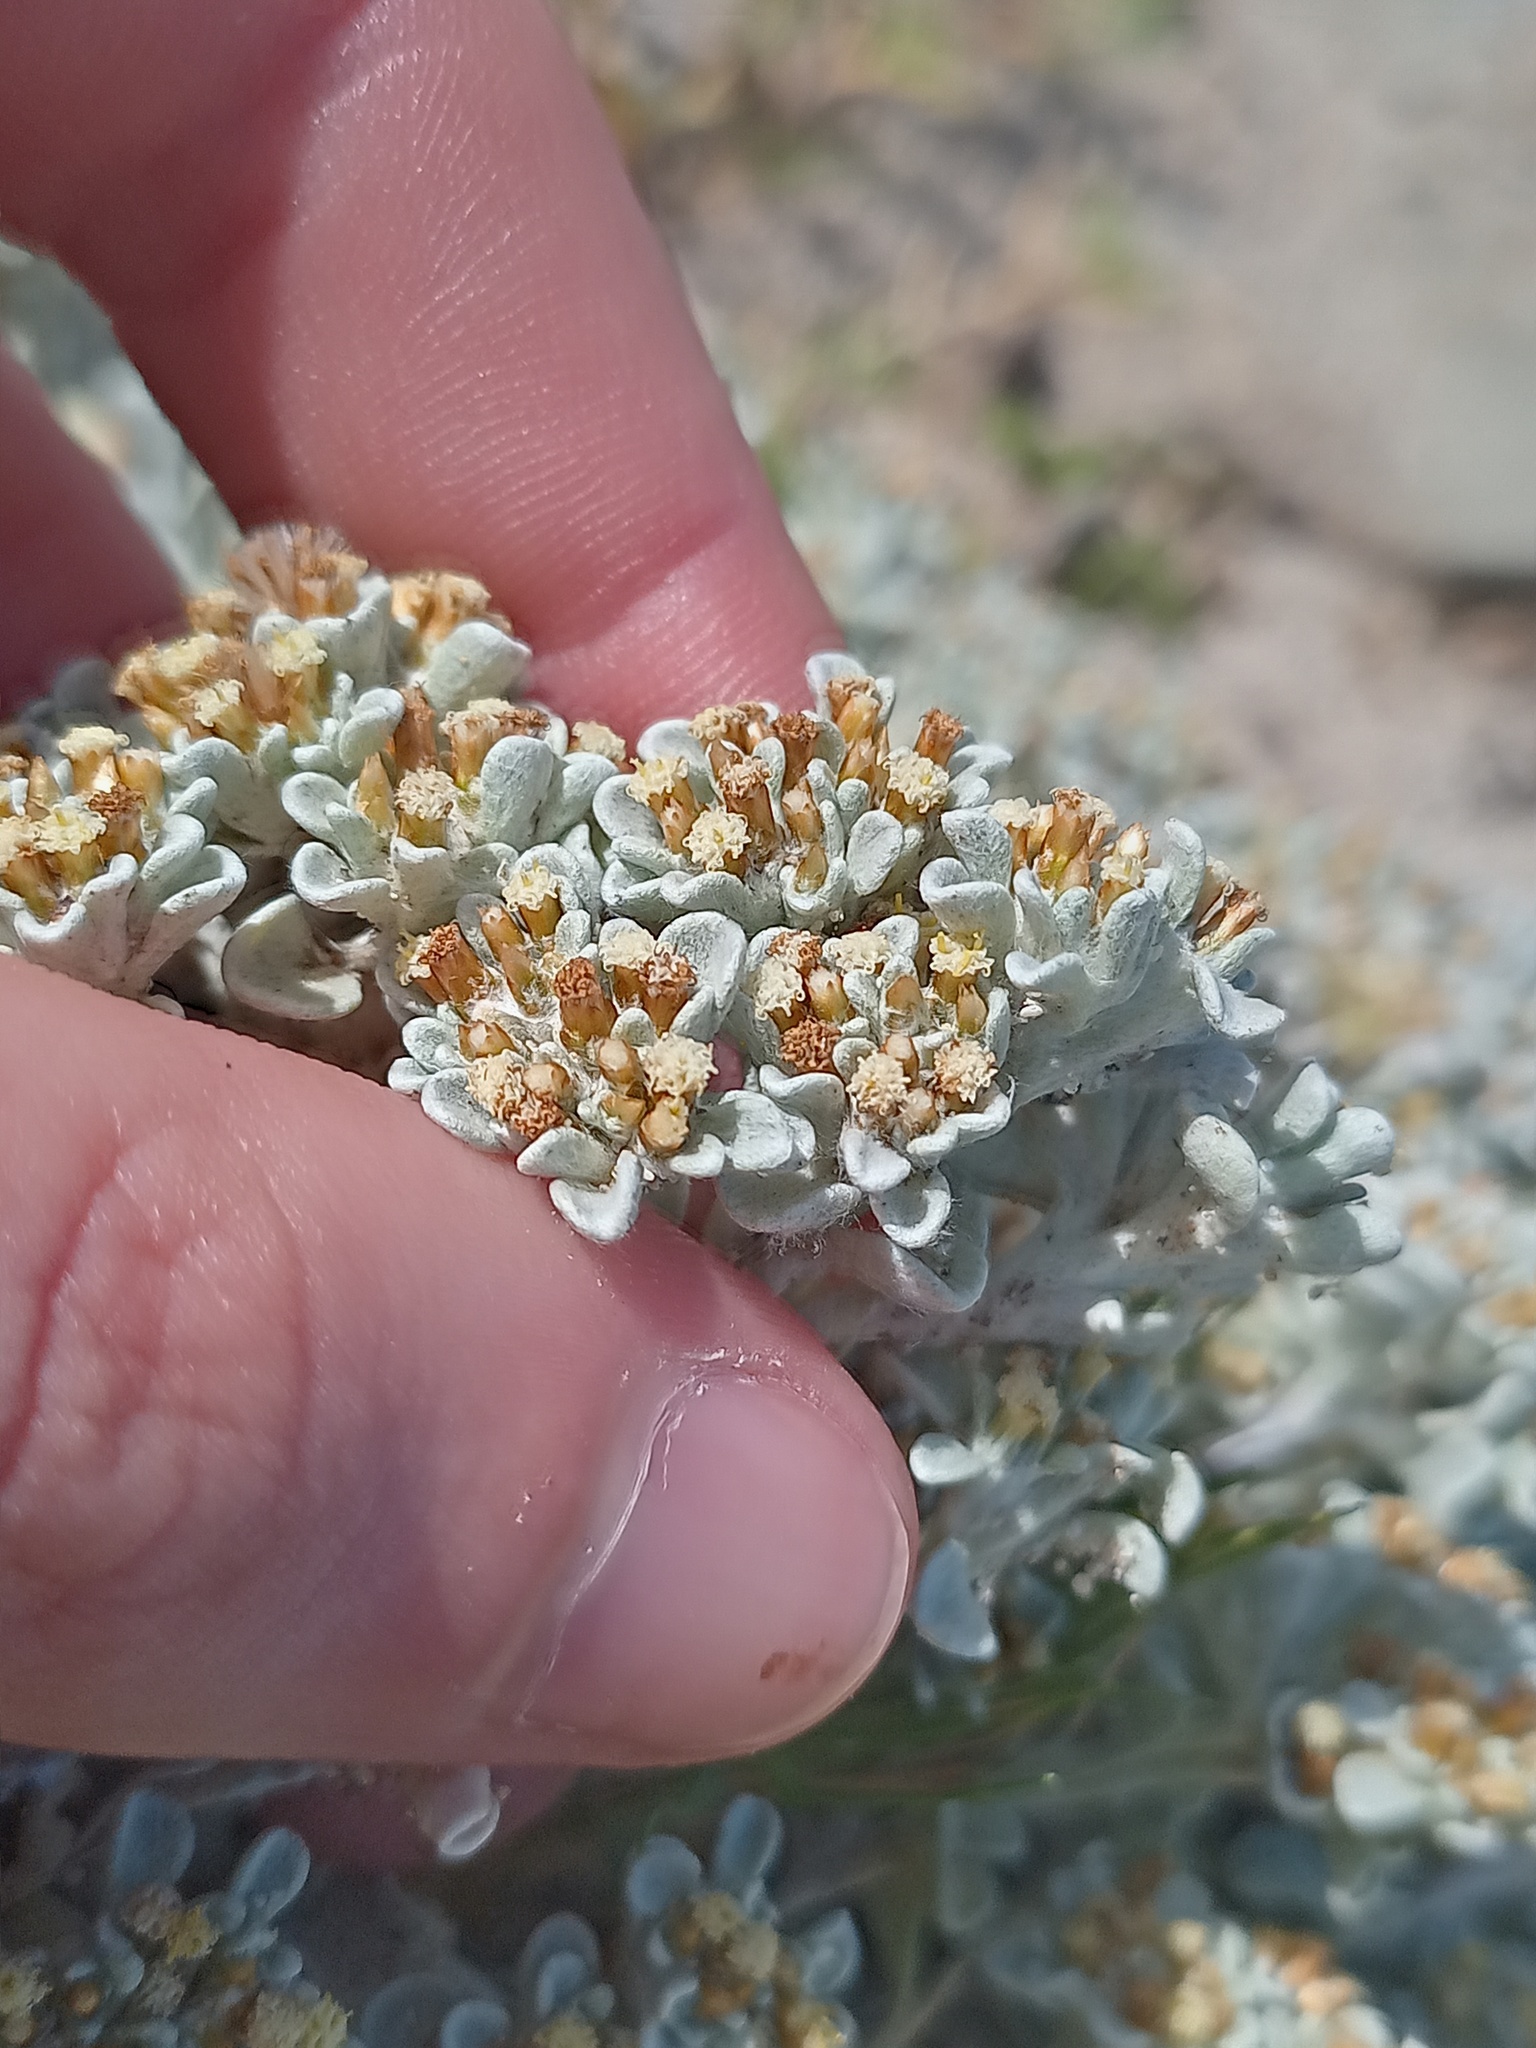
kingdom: Plantae
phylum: Tracheophyta
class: Magnoliopsida
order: Asterales
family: Asteraceae
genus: Helichrysum
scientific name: Helichrysum litorale
